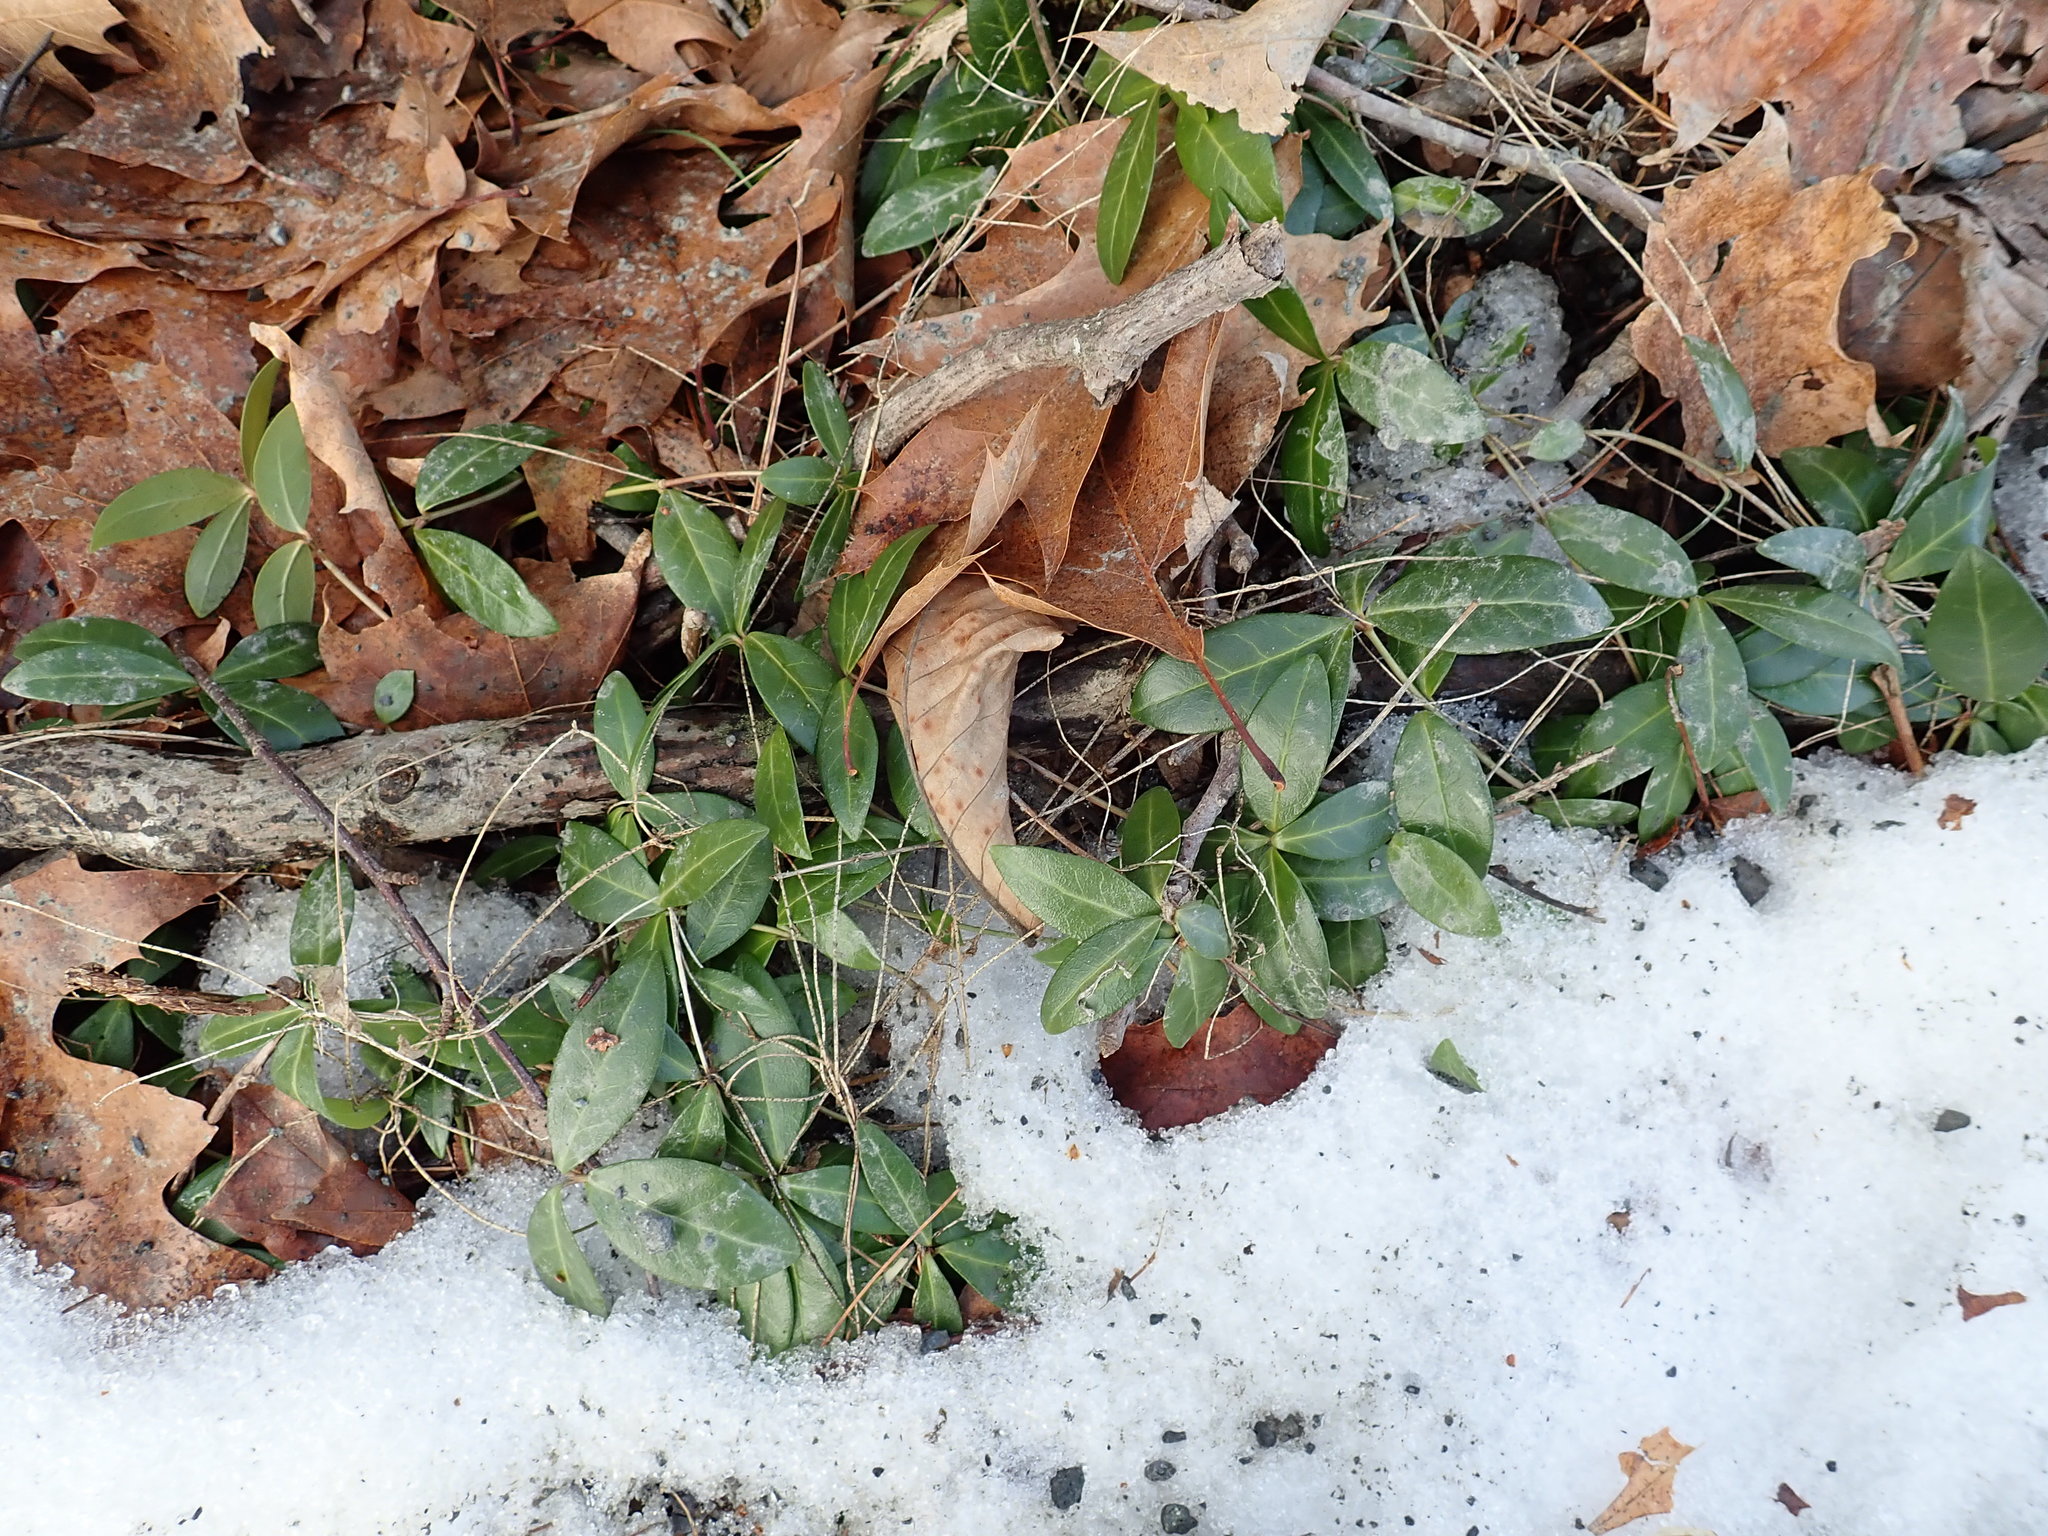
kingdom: Plantae
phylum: Tracheophyta
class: Magnoliopsida
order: Gentianales
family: Apocynaceae
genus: Vinca
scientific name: Vinca minor
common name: Lesser periwinkle
